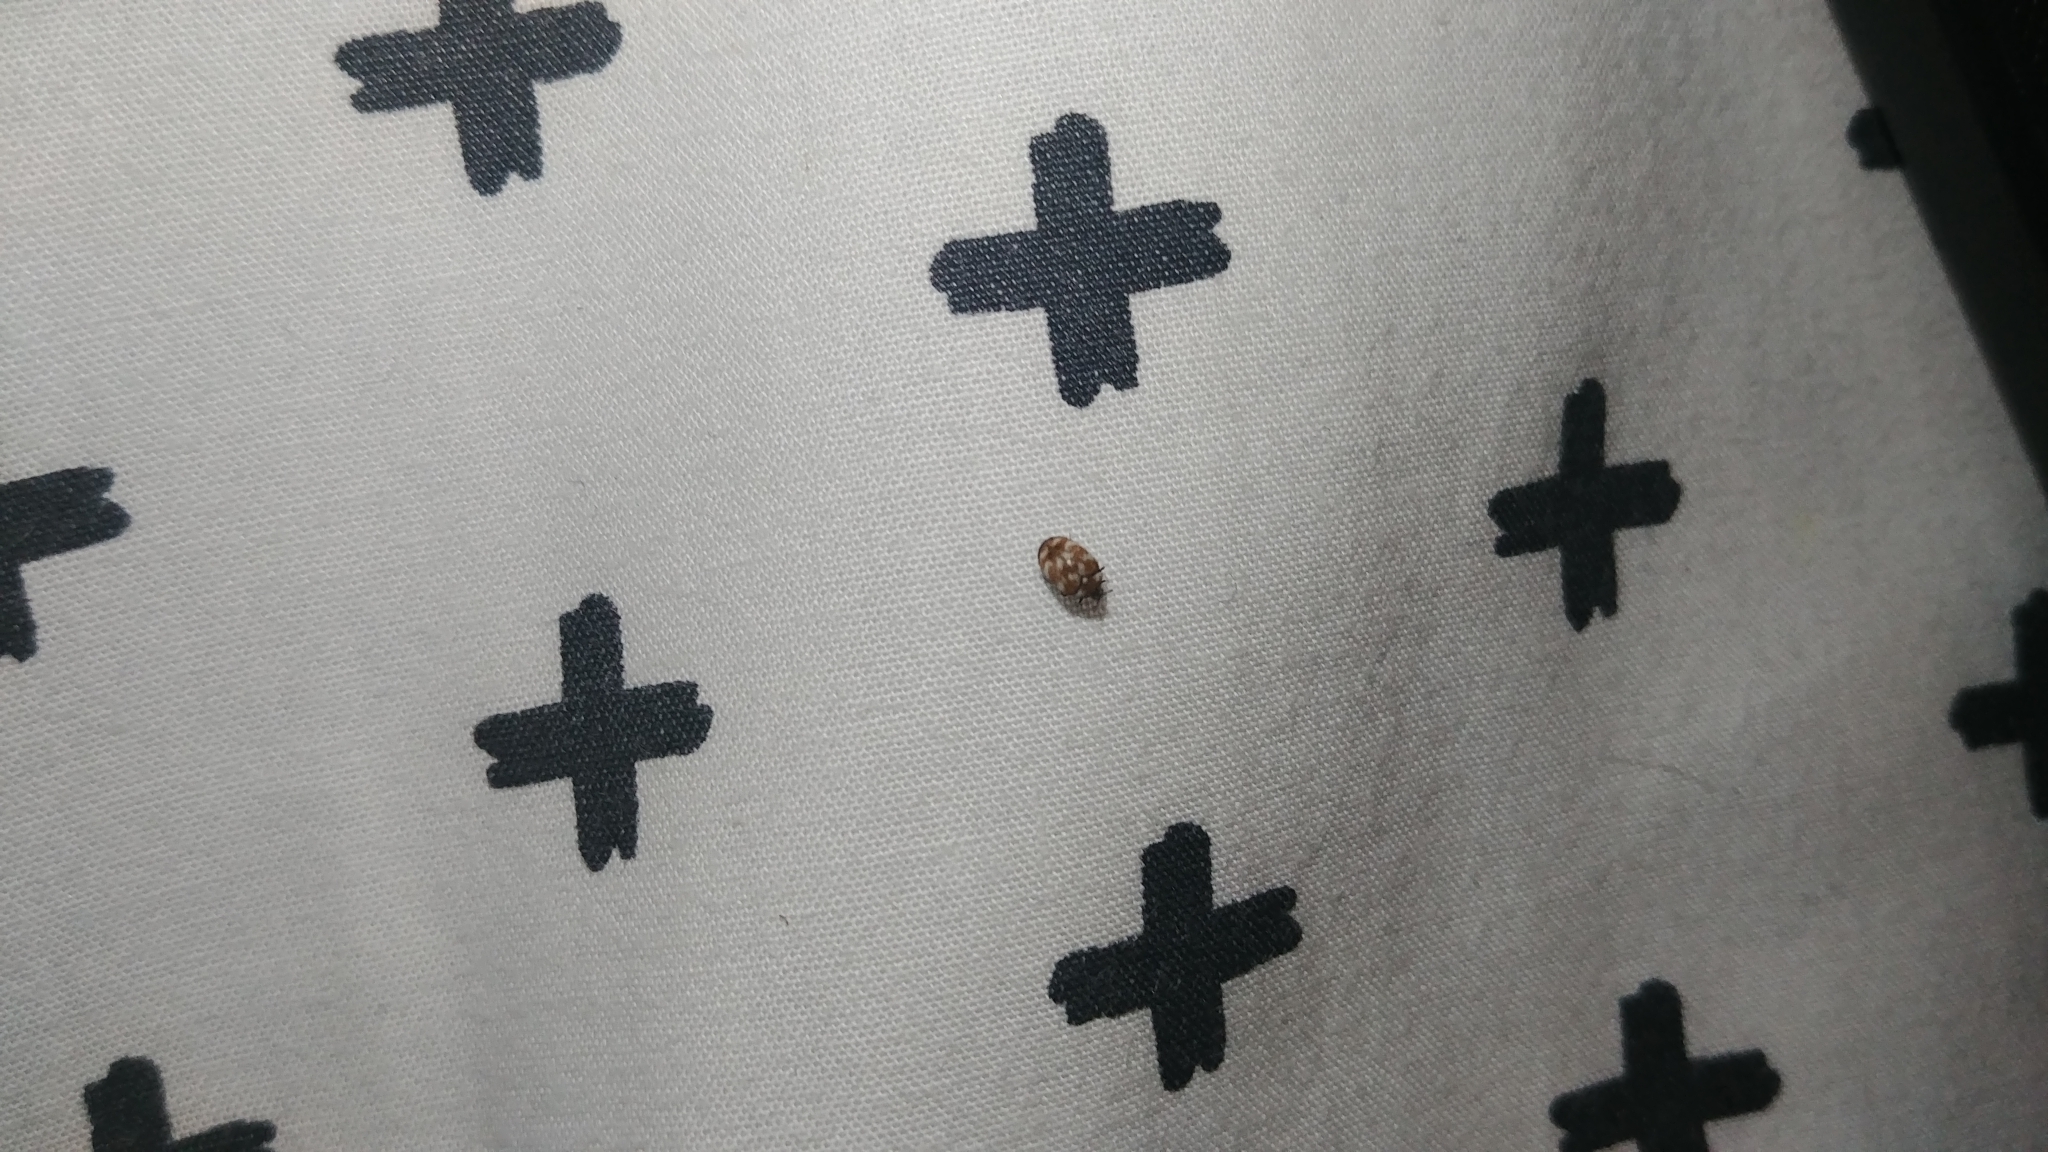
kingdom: Animalia
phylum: Arthropoda
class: Insecta
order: Coleoptera
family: Dermestidae
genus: Anthrenus
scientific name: Anthrenus verbasci
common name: Varied carpet beetle
